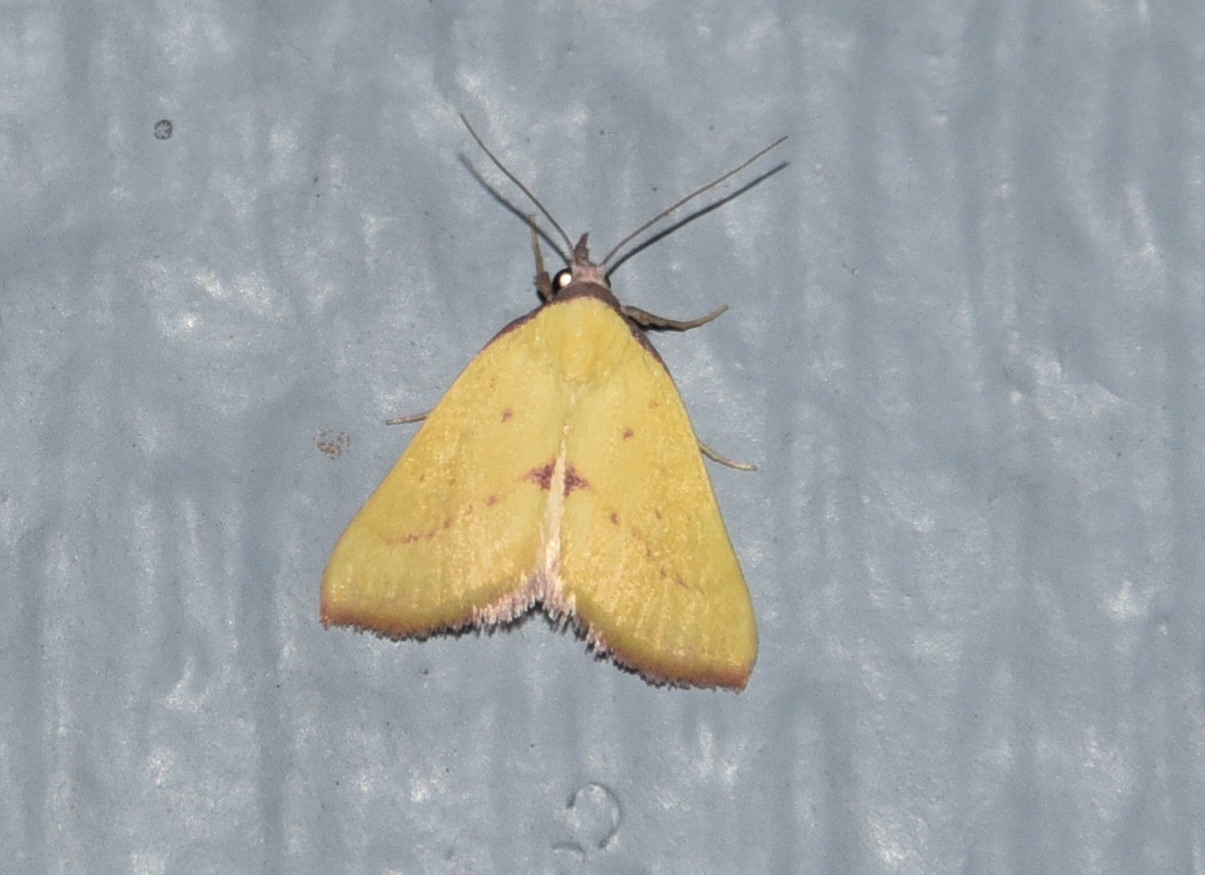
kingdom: Animalia
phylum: Arthropoda
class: Insecta
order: Lepidoptera
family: Erebidae
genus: Phytometra
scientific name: Phytometra orgiae
